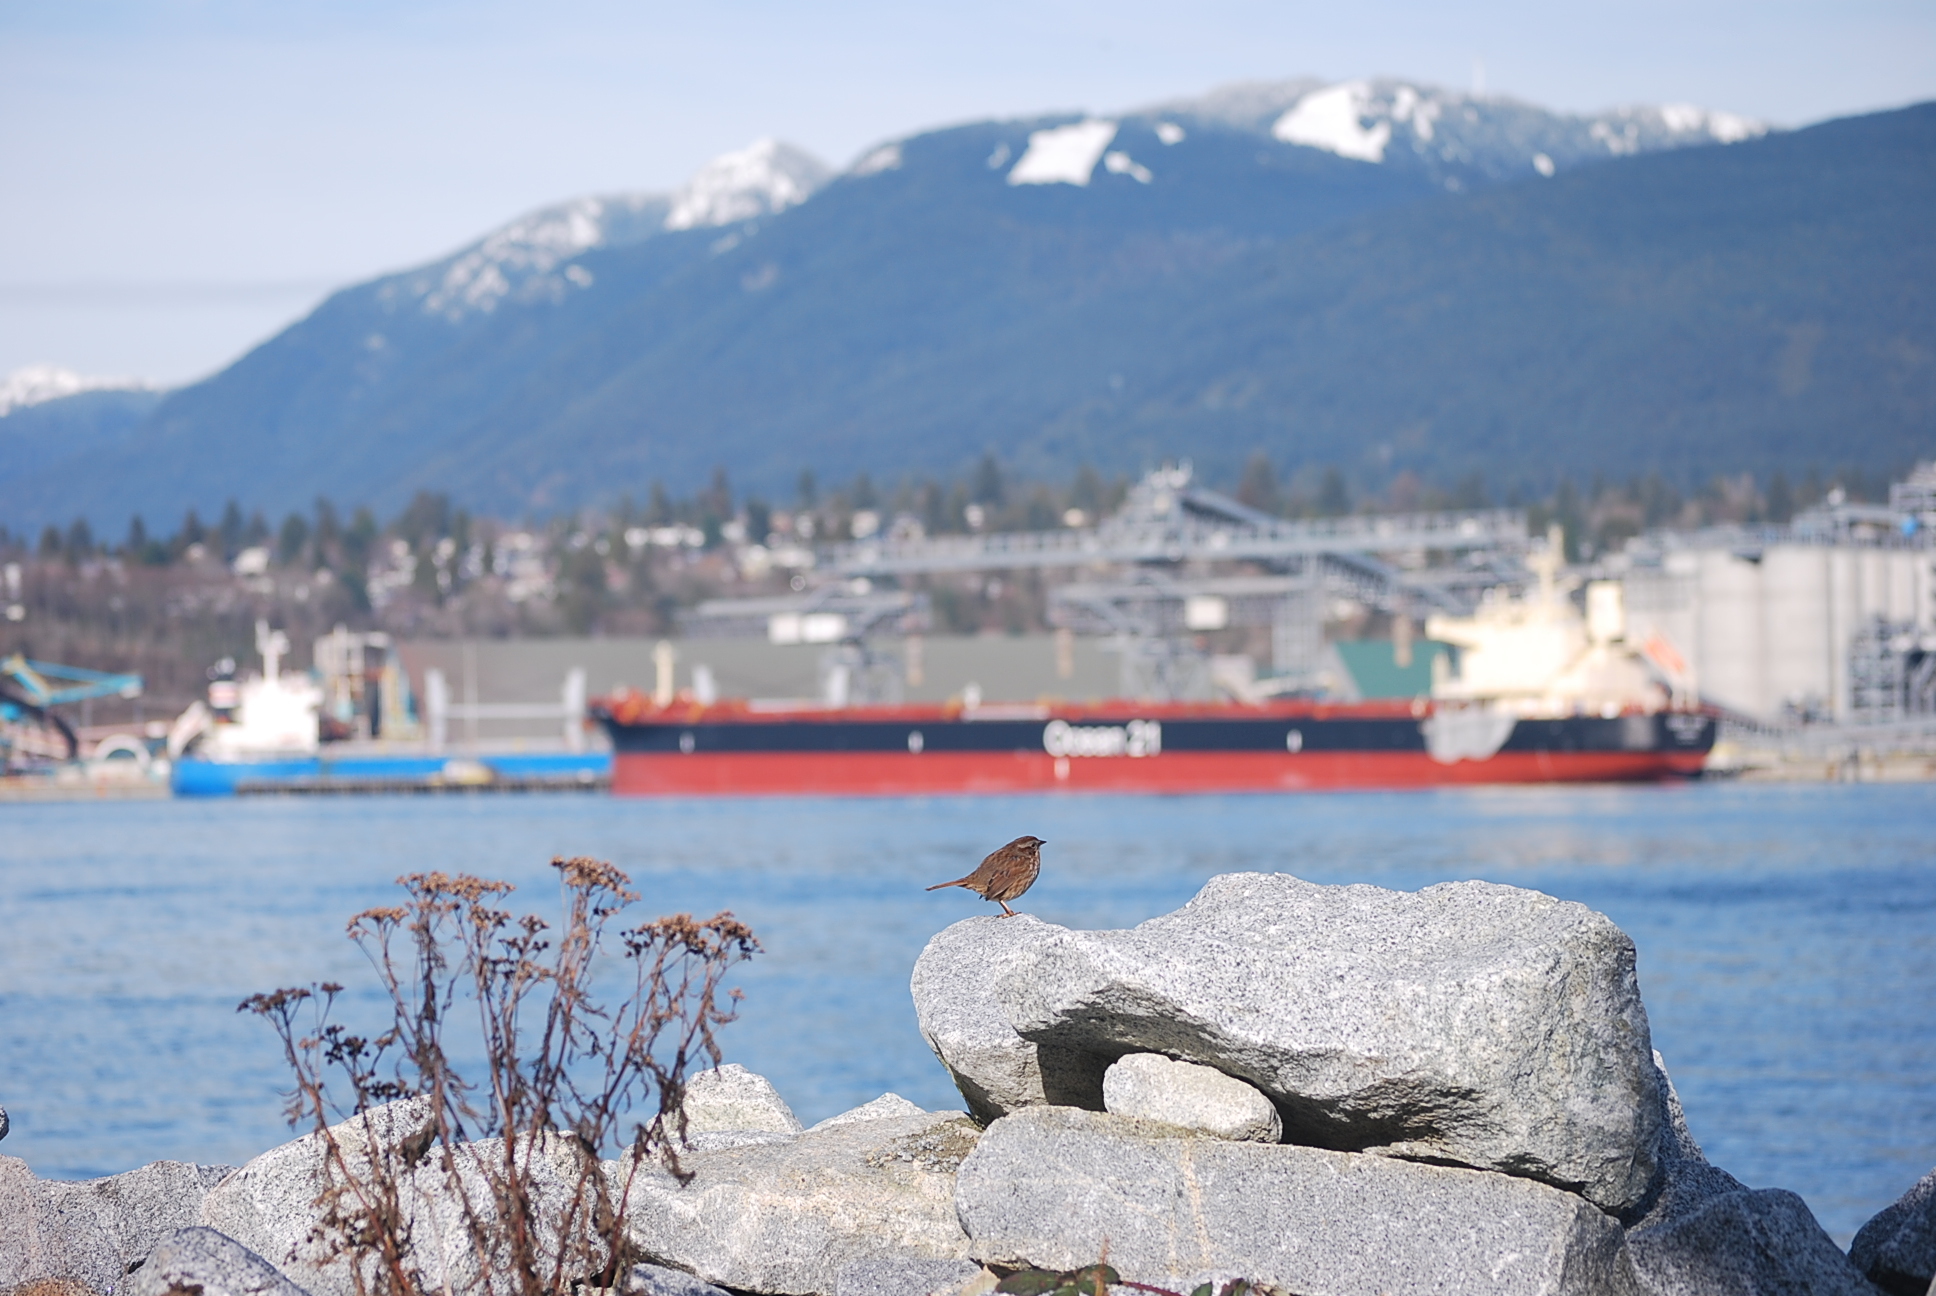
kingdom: Animalia
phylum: Chordata
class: Aves
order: Passeriformes
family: Passerellidae
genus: Melospiza
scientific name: Melospiza melodia
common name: Song sparrow
